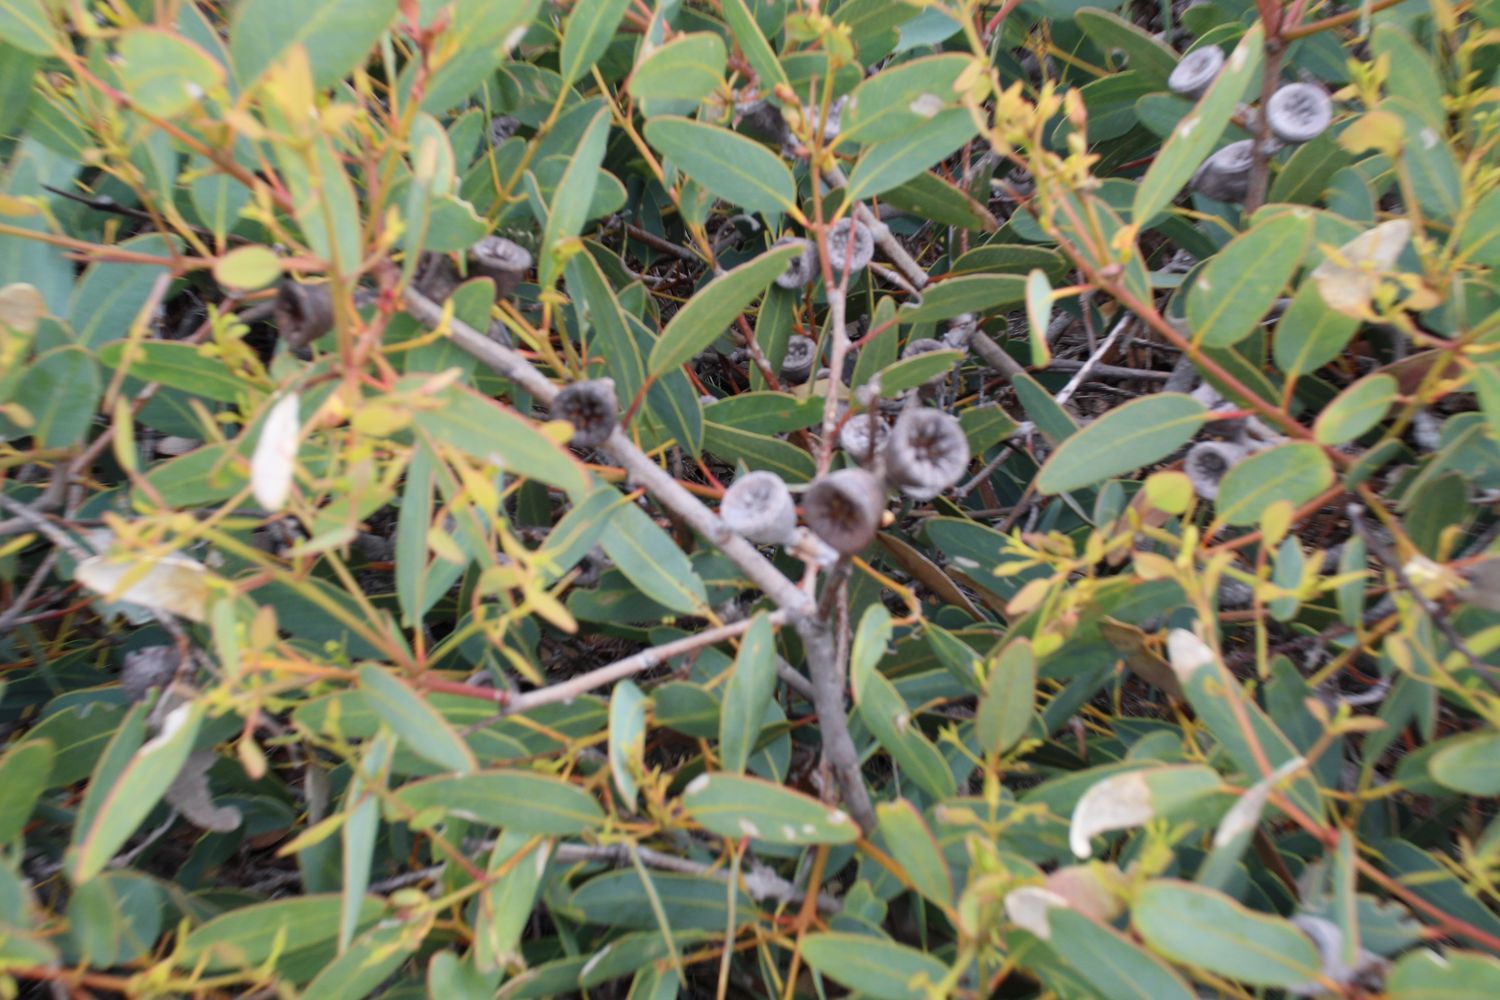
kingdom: Plantae
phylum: Tracheophyta
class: Magnoliopsida
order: Myrtales
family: Myrtaceae
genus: Eucalyptus
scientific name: Eucalyptus preissiana
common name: Stirling range mallee
